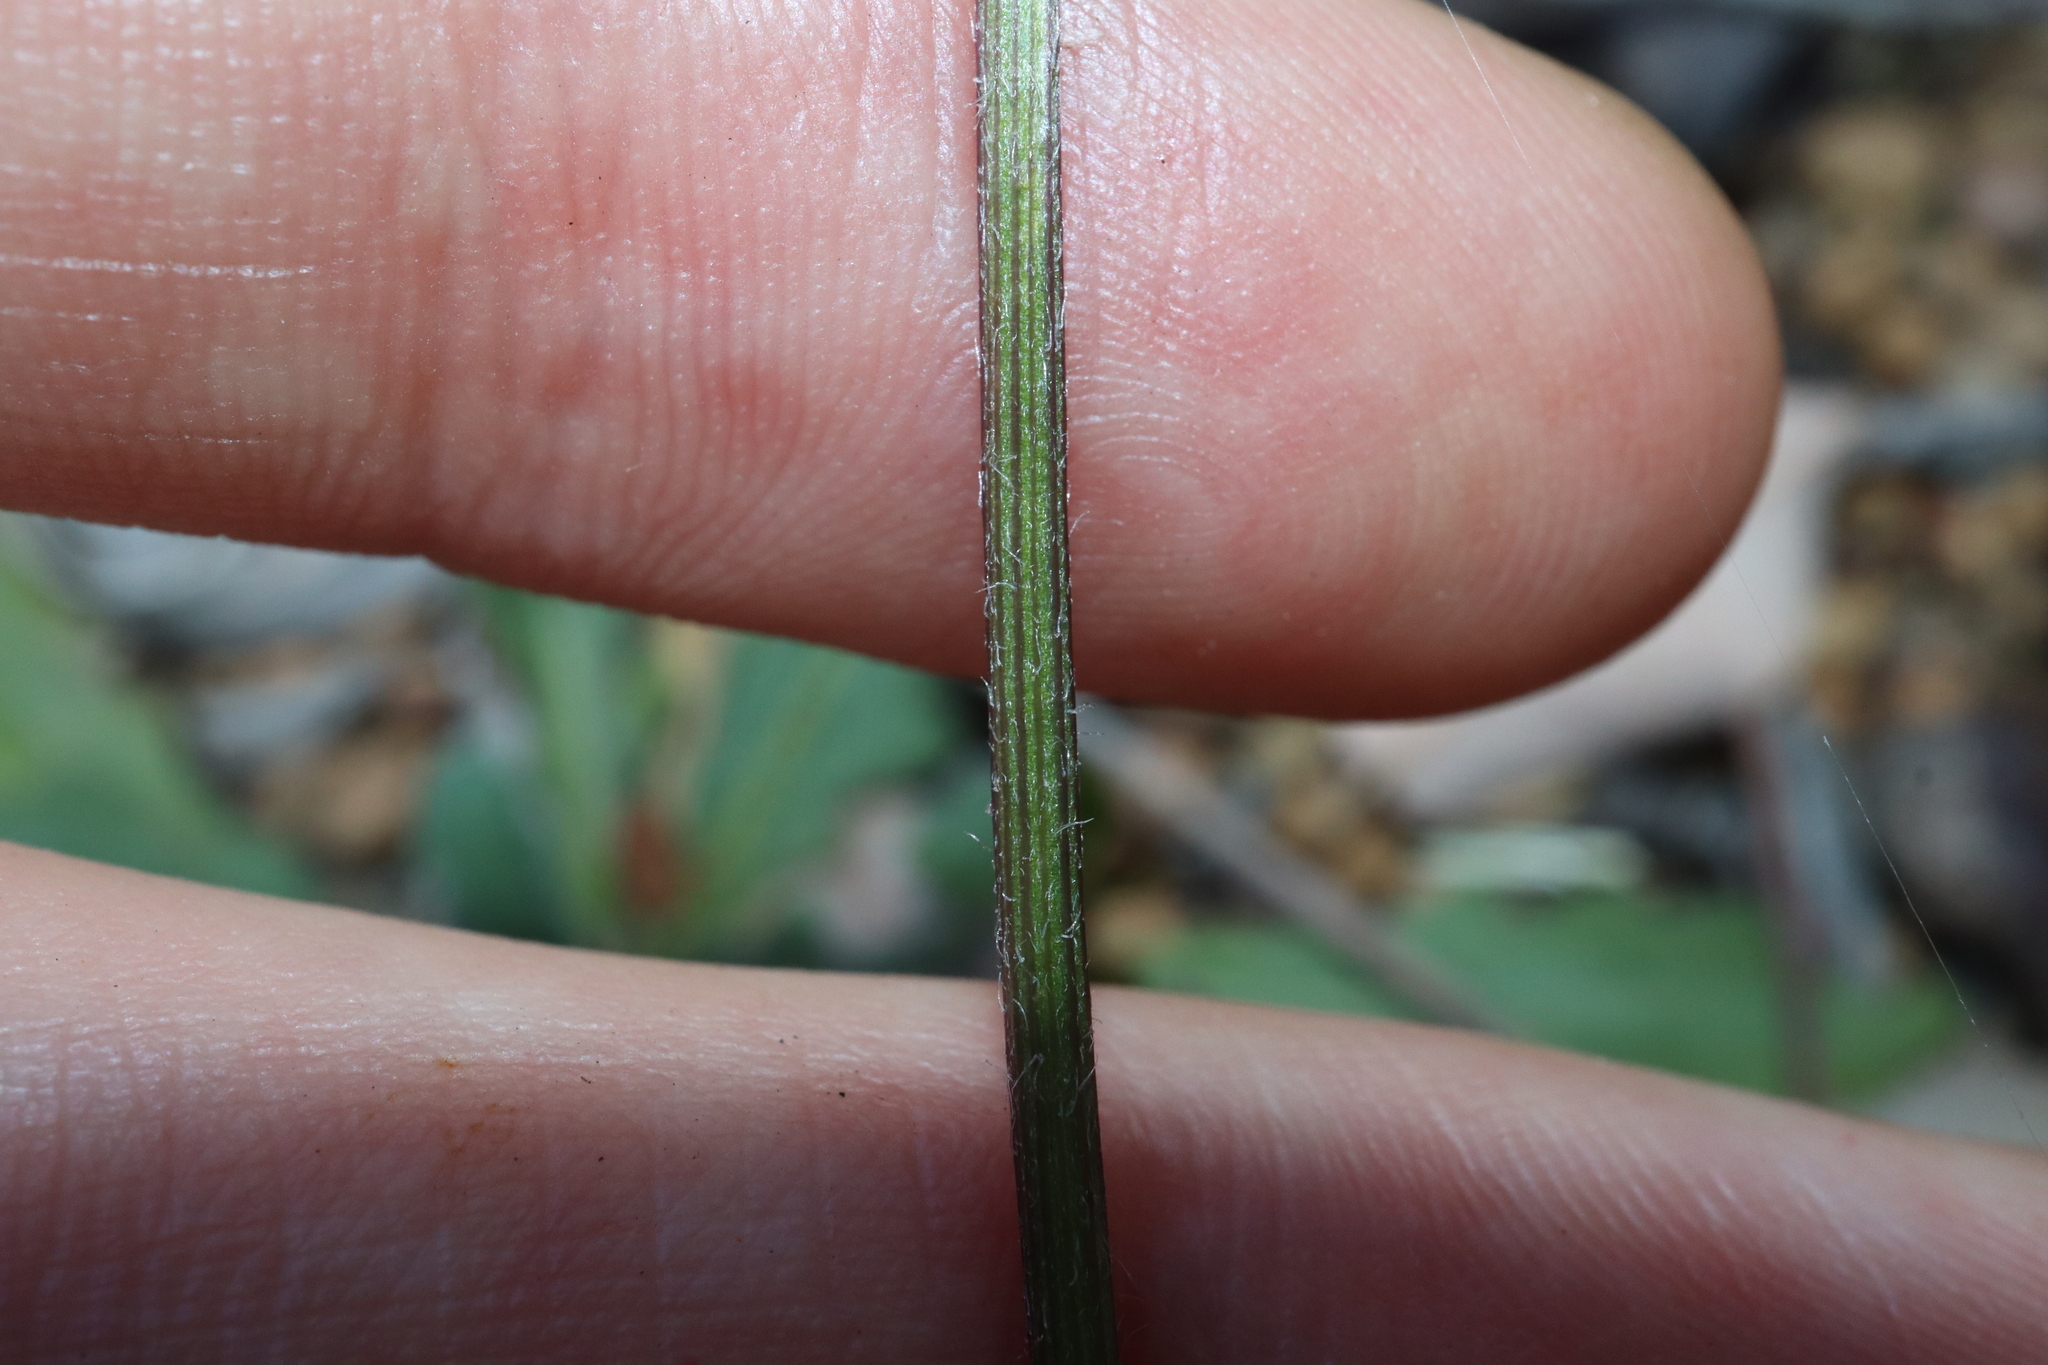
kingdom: Plantae
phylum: Tracheophyta
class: Magnoliopsida
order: Asterales
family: Asteraceae
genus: Lagenophora
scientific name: Lagenophora huegelii
